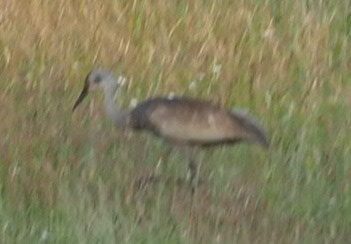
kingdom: Animalia
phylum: Chordata
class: Aves
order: Gruiformes
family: Gruidae
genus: Grus
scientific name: Grus canadensis
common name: Sandhill crane
